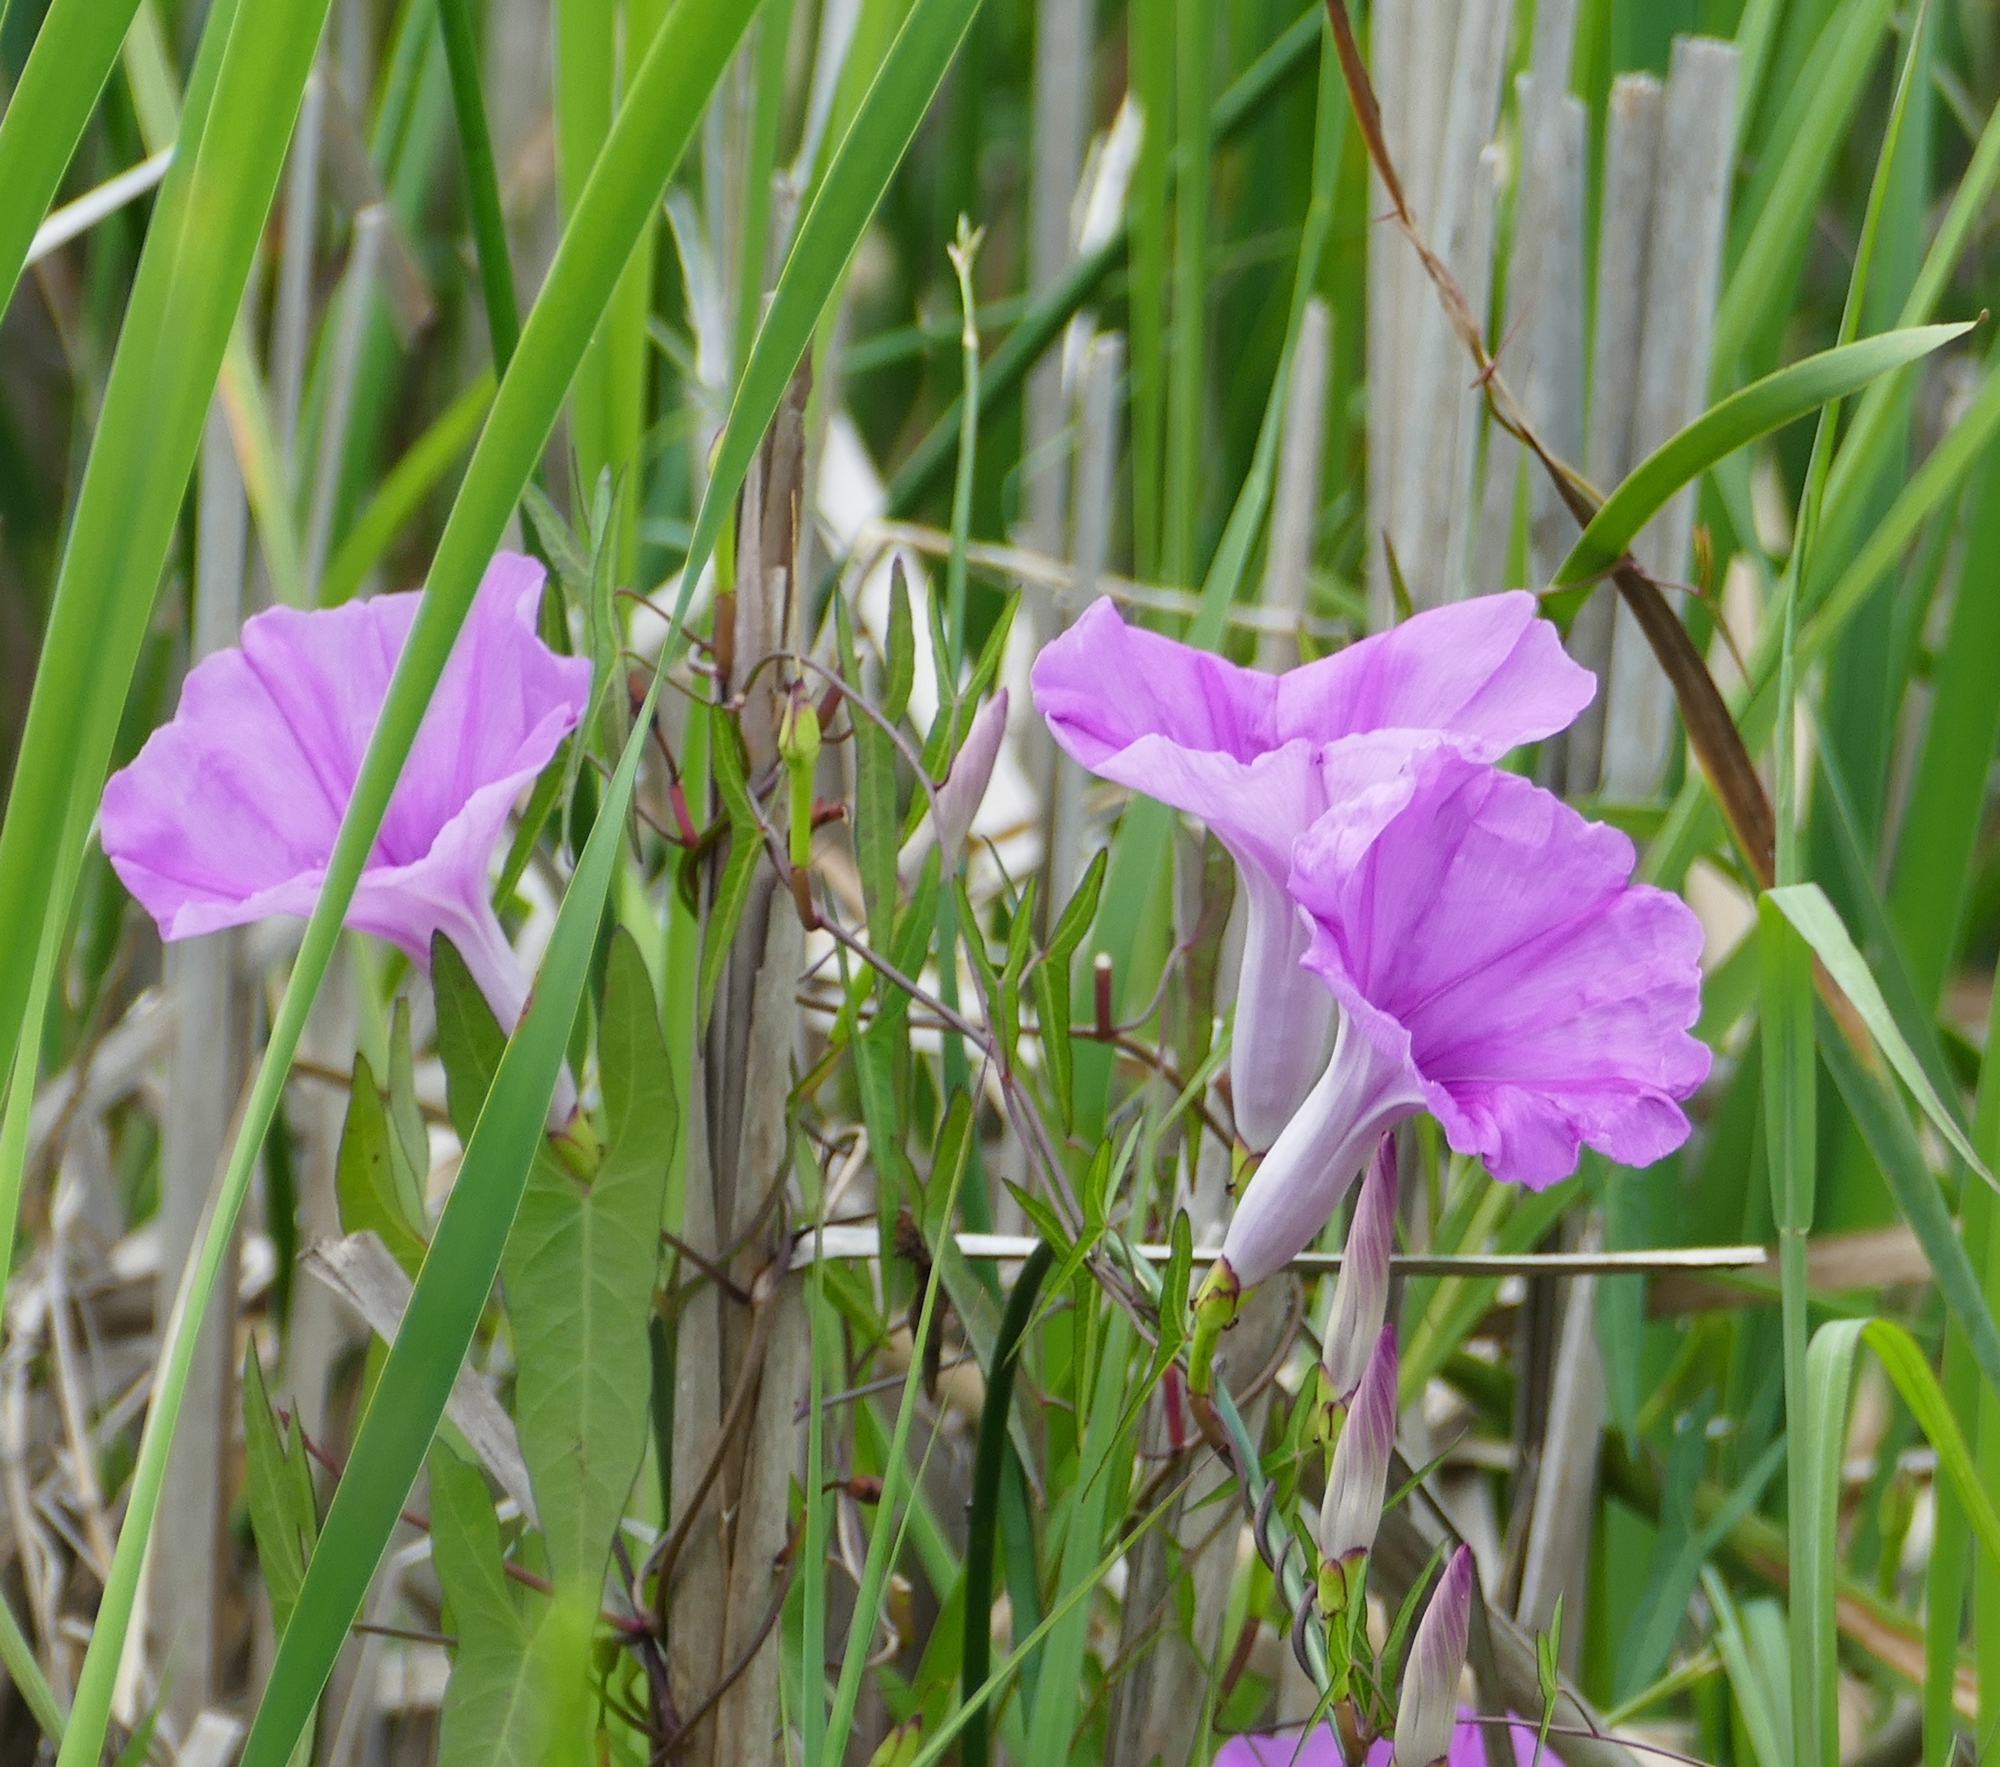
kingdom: Plantae
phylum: Tracheophyta
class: Magnoliopsida
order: Solanales
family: Convolvulaceae
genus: Ipomoea
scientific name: Ipomoea sagittata
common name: Saltmarsh morning glory
